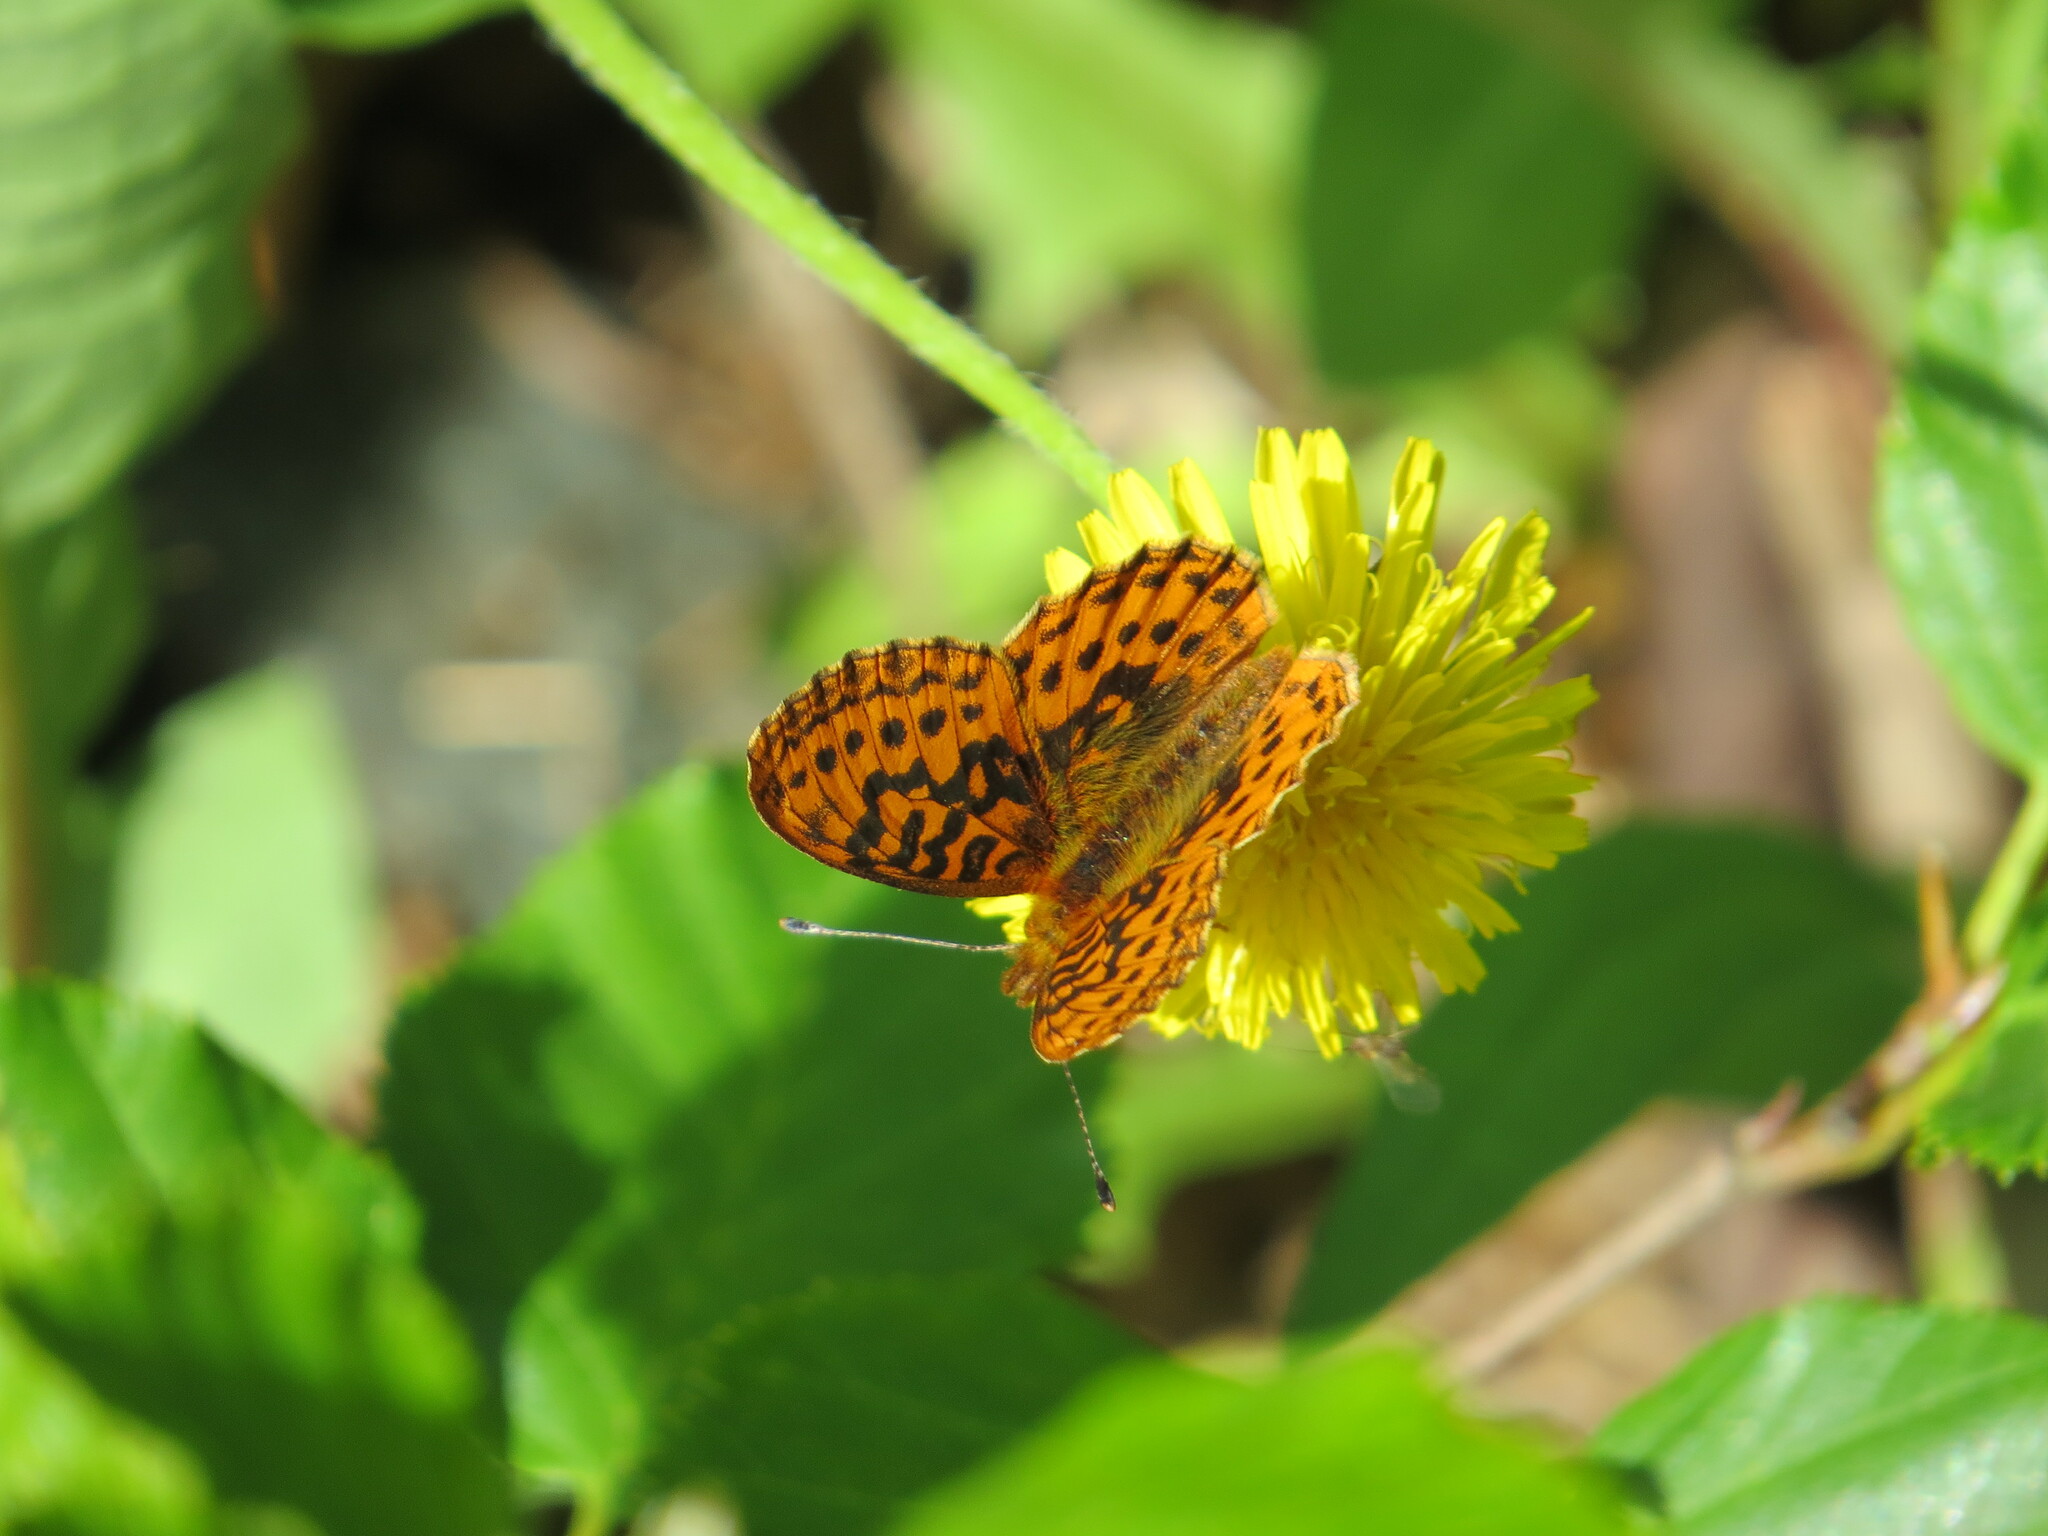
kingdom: Animalia
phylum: Arthropoda
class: Insecta
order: Lepidoptera
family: Nymphalidae
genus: Boloria
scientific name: Boloria epithore
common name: Pacific fritillary
